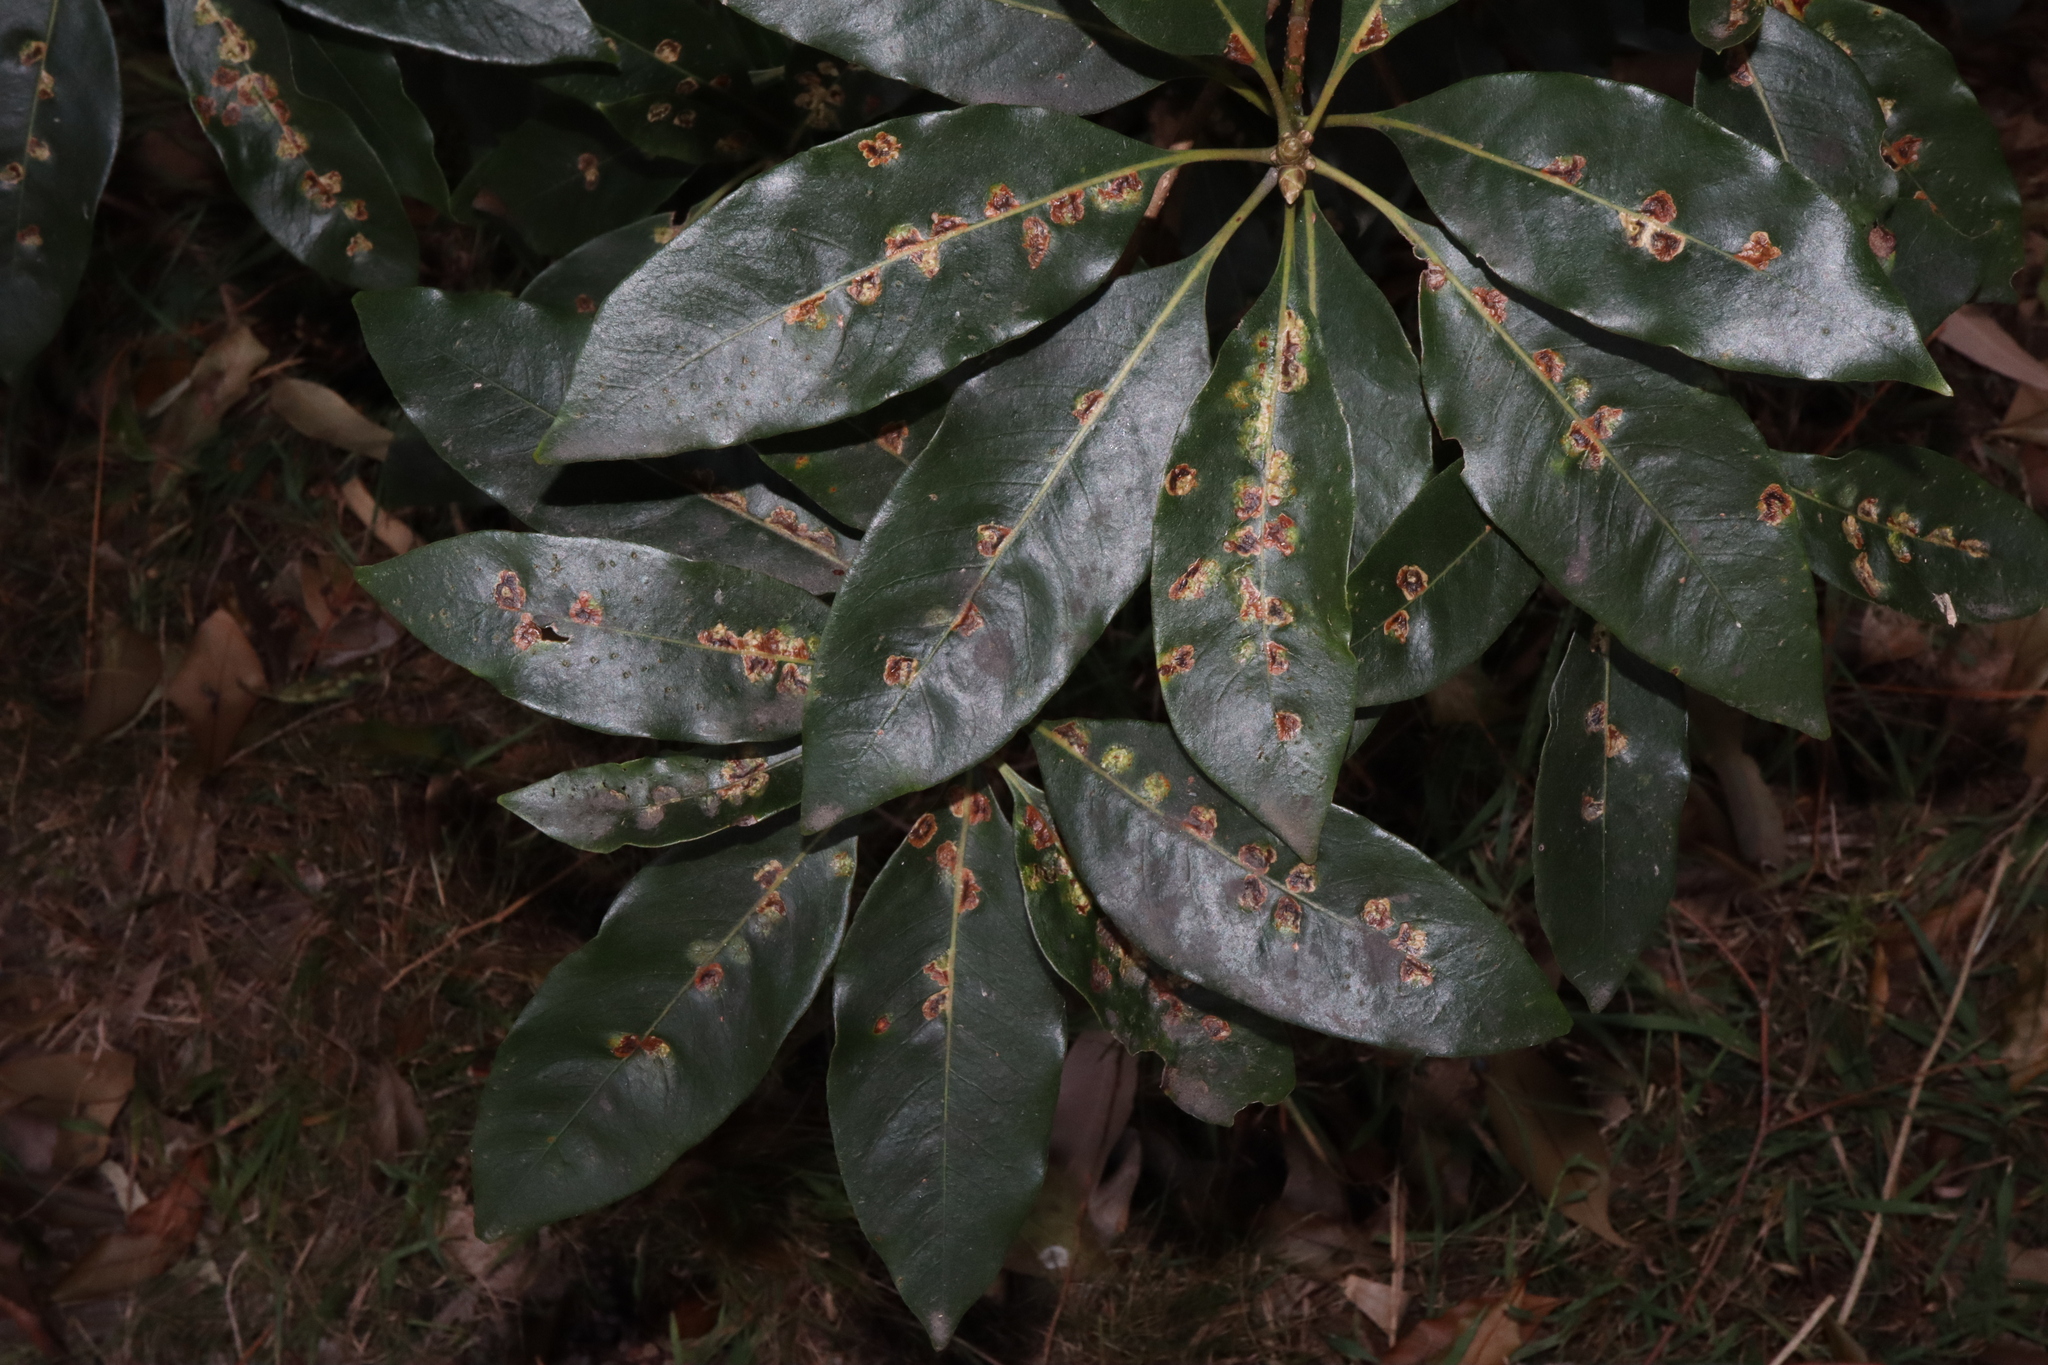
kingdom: Animalia
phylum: Arthropoda
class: Insecta
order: Diptera
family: Agromyzidae
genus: Phytoliriomyza
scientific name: Phytoliriomyza pittosporophylli
